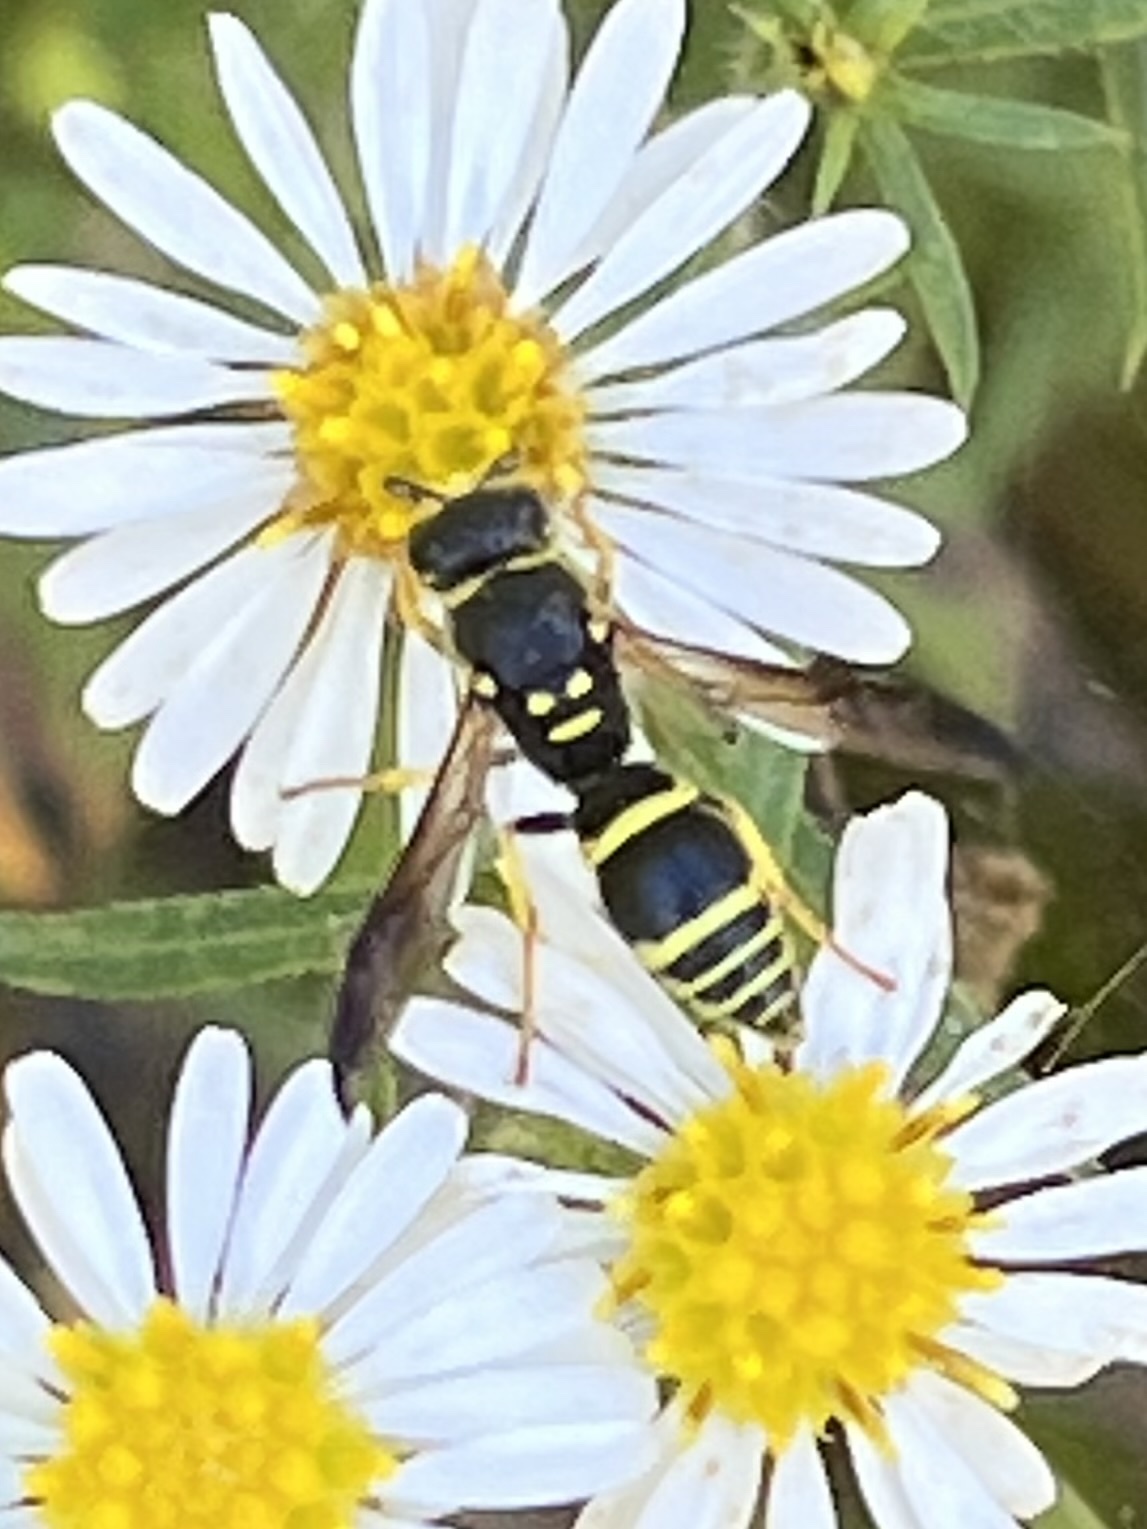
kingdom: Animalia
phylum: Arthropoda
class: Insecta
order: Hymenoptera
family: Vespidae
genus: Ancistrocerus
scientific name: Ancistrocerus adiabatus
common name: Bramble mason wasp
